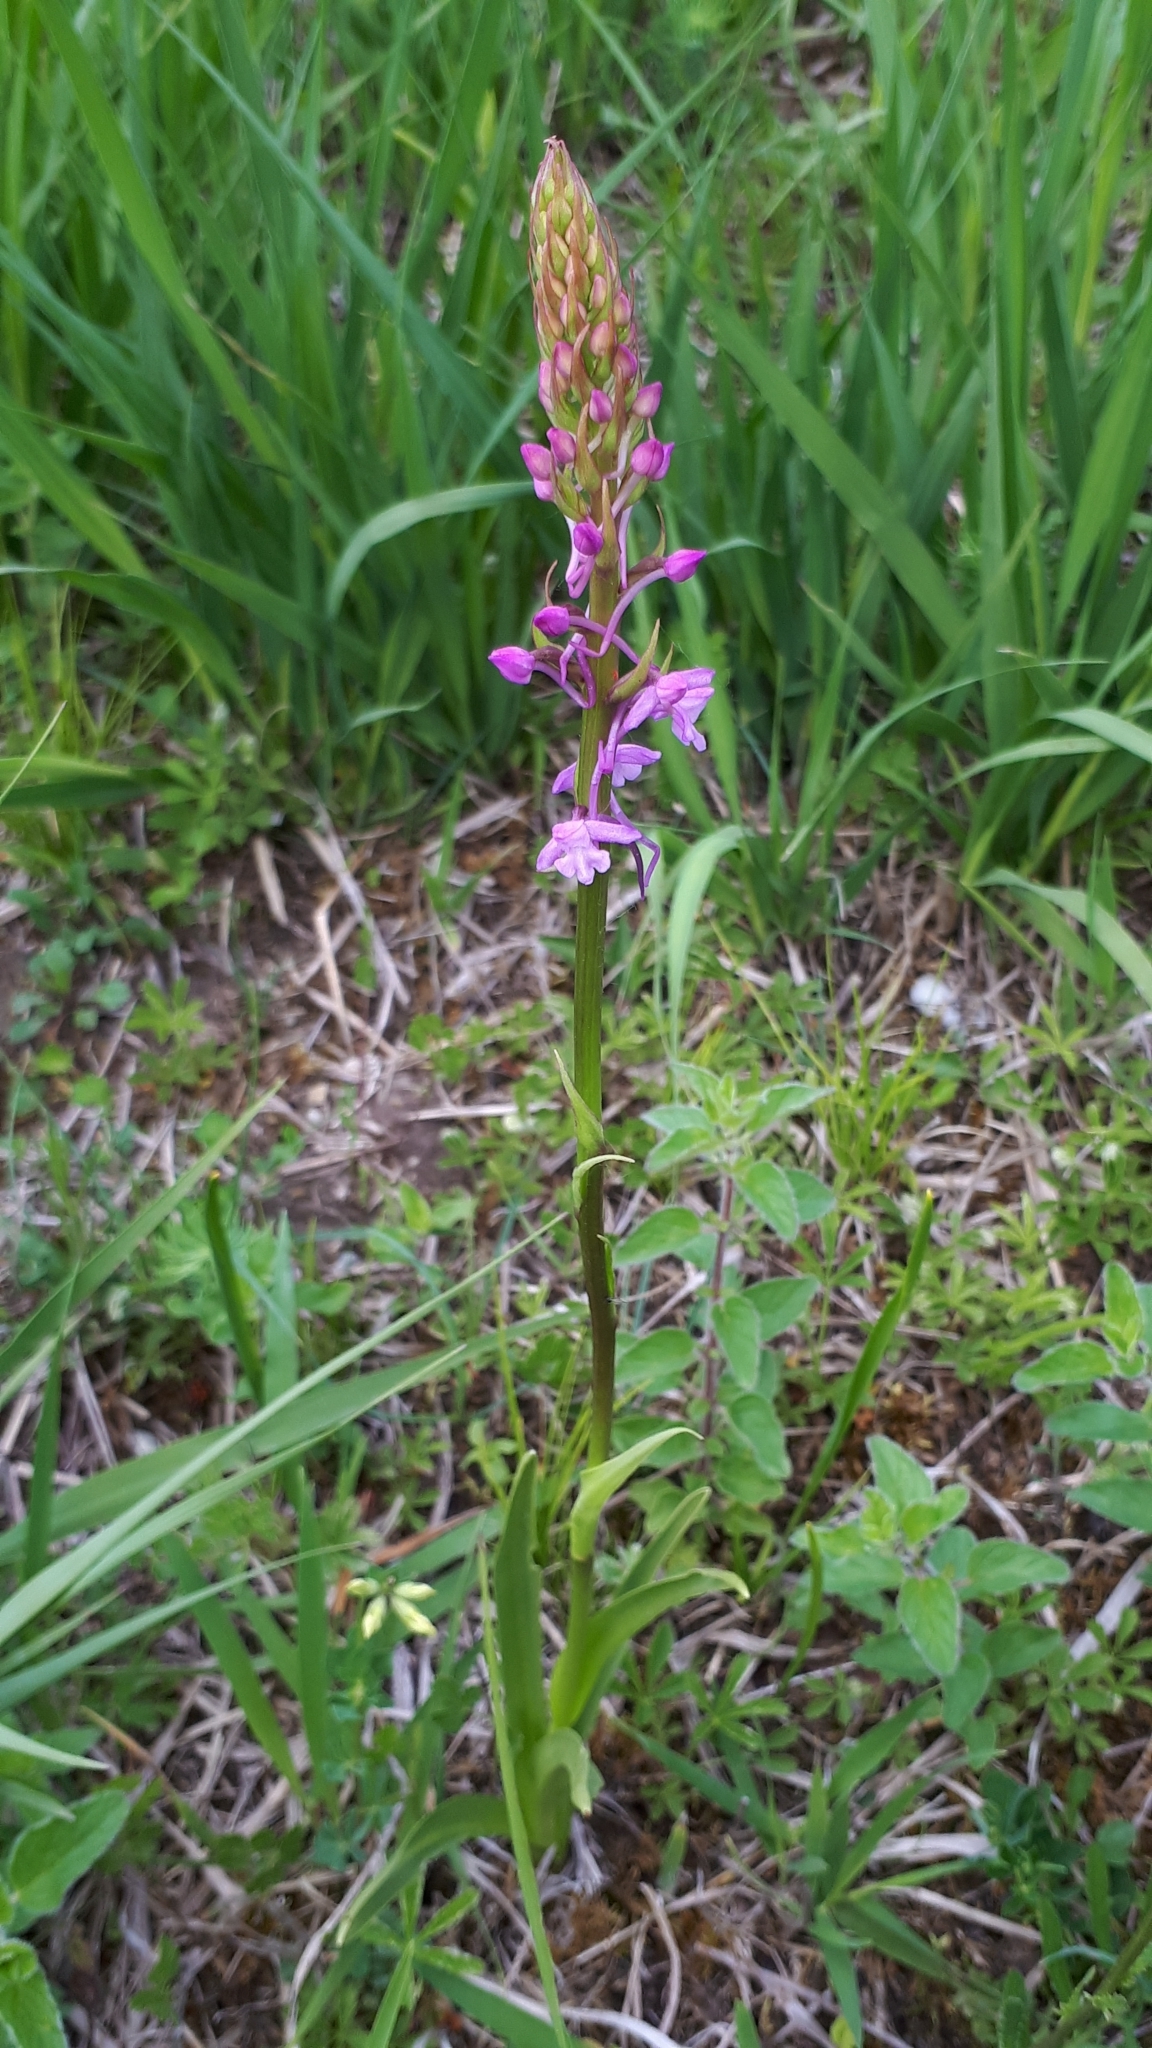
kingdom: Plantae
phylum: Tracheophyta
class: Liliopsida
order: Asparagales
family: Orchidaceae
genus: Gymnadenia
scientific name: Gymnadenia conopsea
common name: Fragrant orchid
